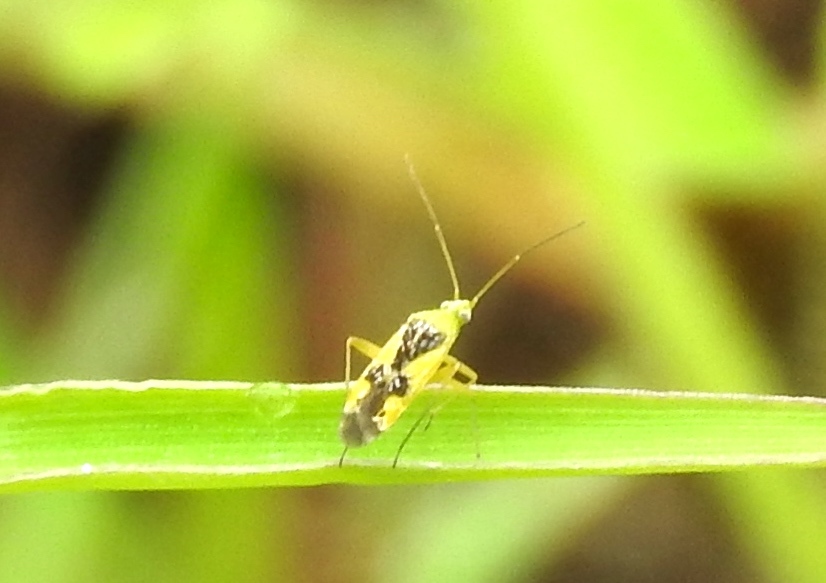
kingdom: Animalia
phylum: Arthropoda
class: Insecta
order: Hemiptera
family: Miridae
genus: Reuteroscopus
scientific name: Reuteroscopus
